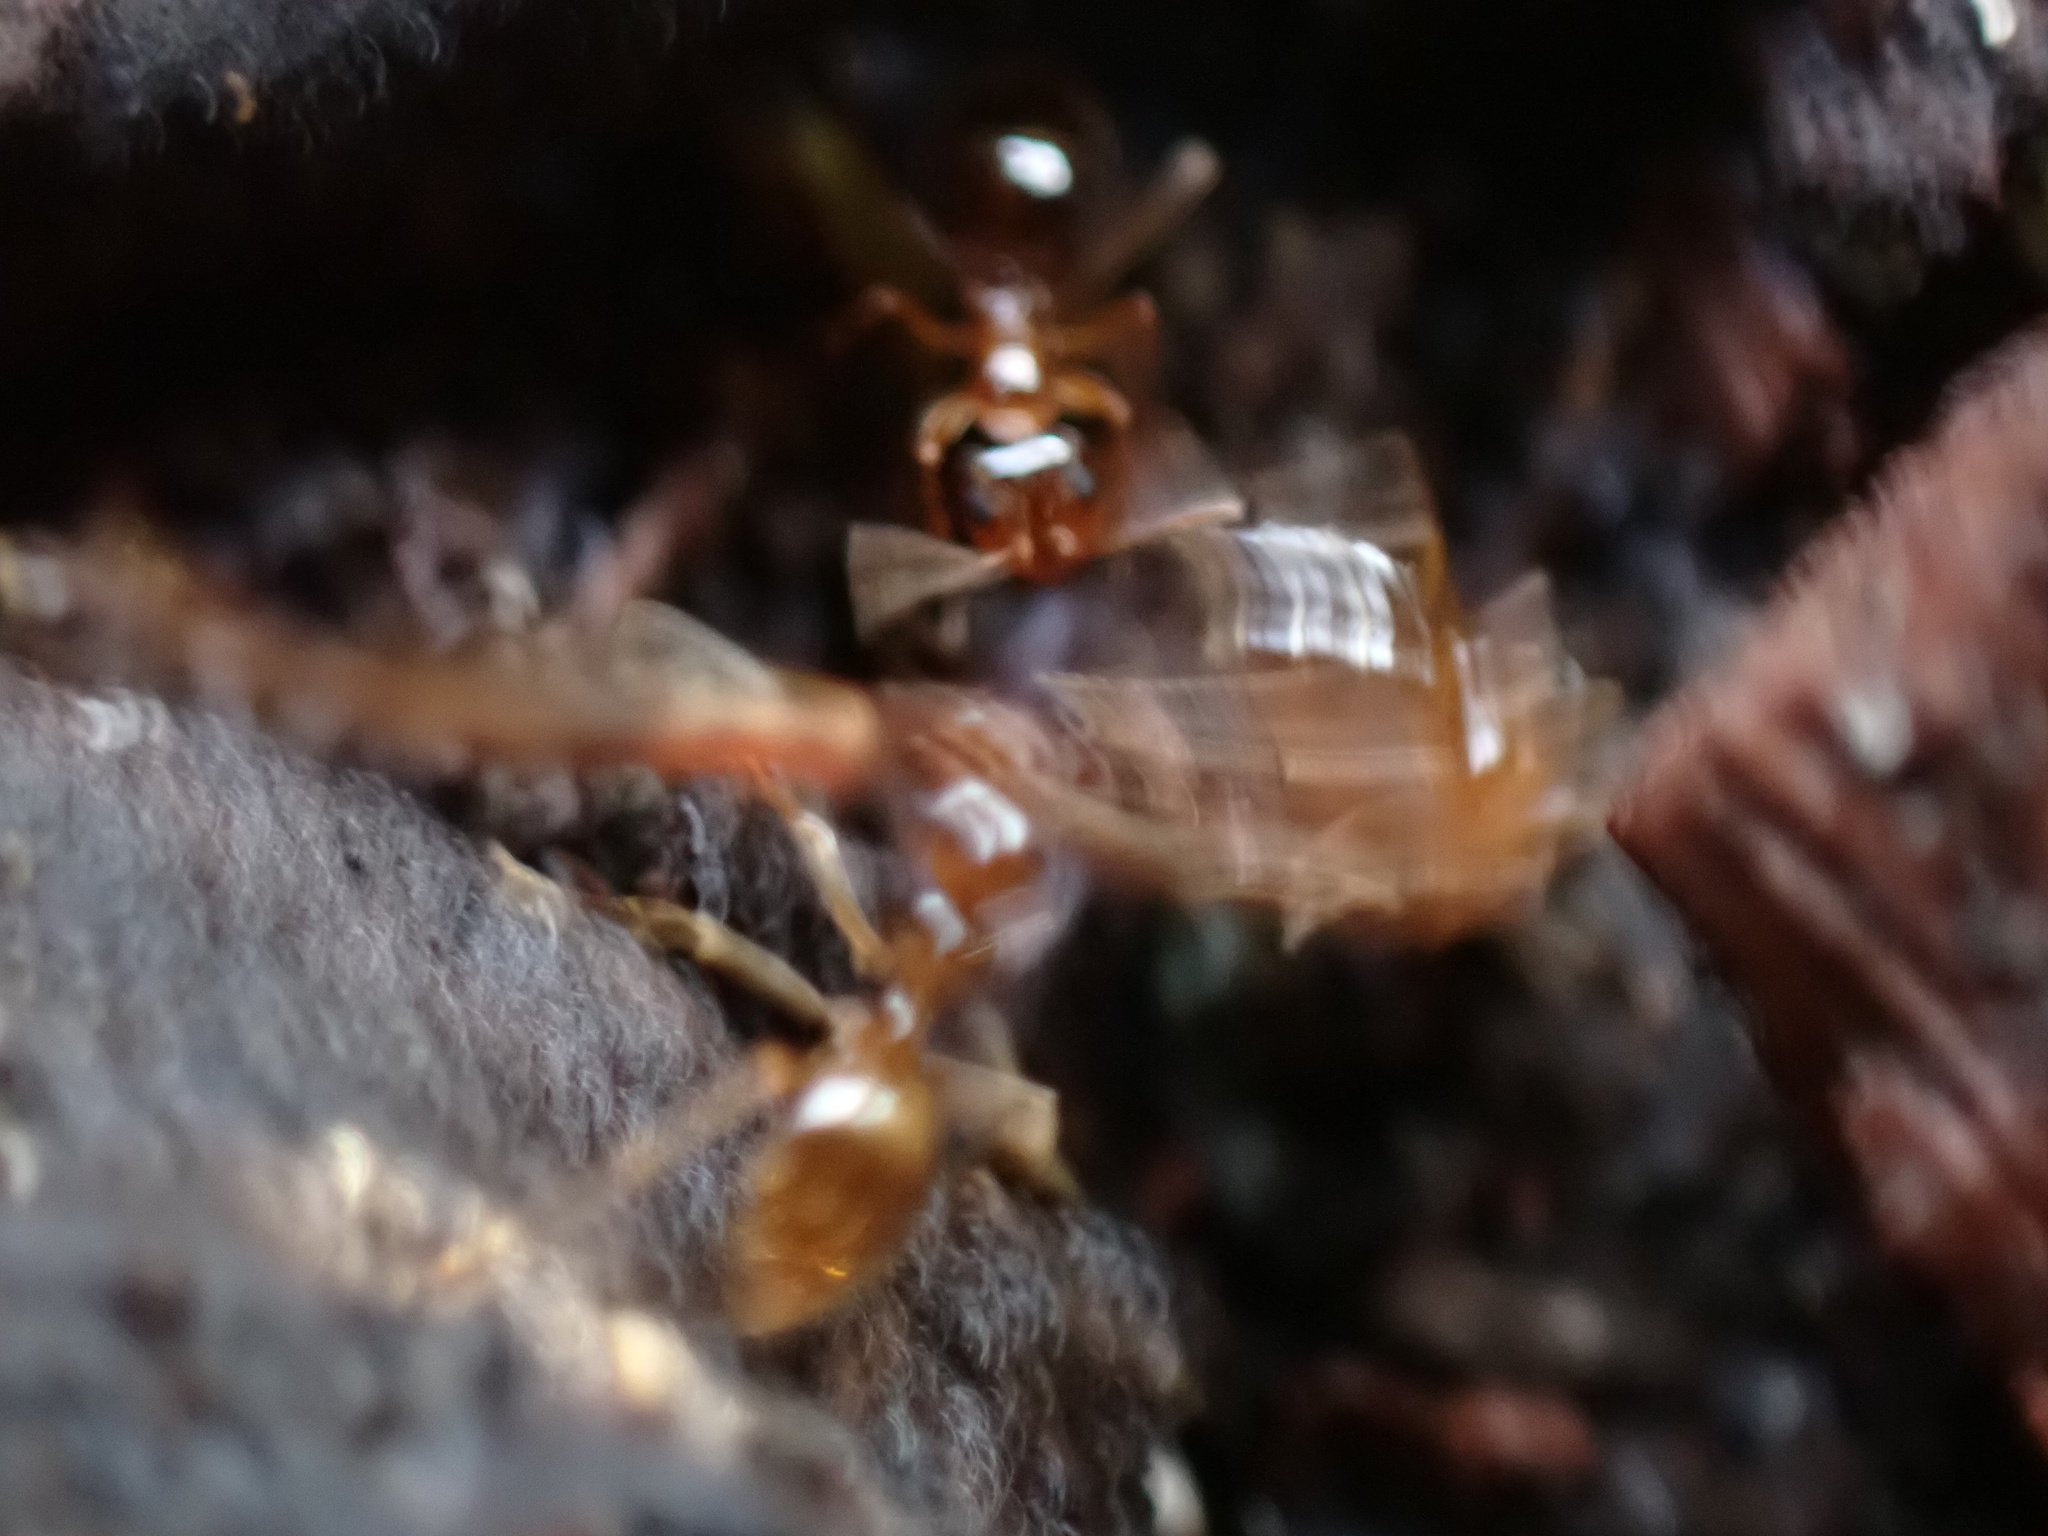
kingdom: Animalia
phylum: Arthropoda
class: Insecta
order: Hymenoptera
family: Formicidae
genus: Prenolepis
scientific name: Prenolepis imparis
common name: Small honey ant
